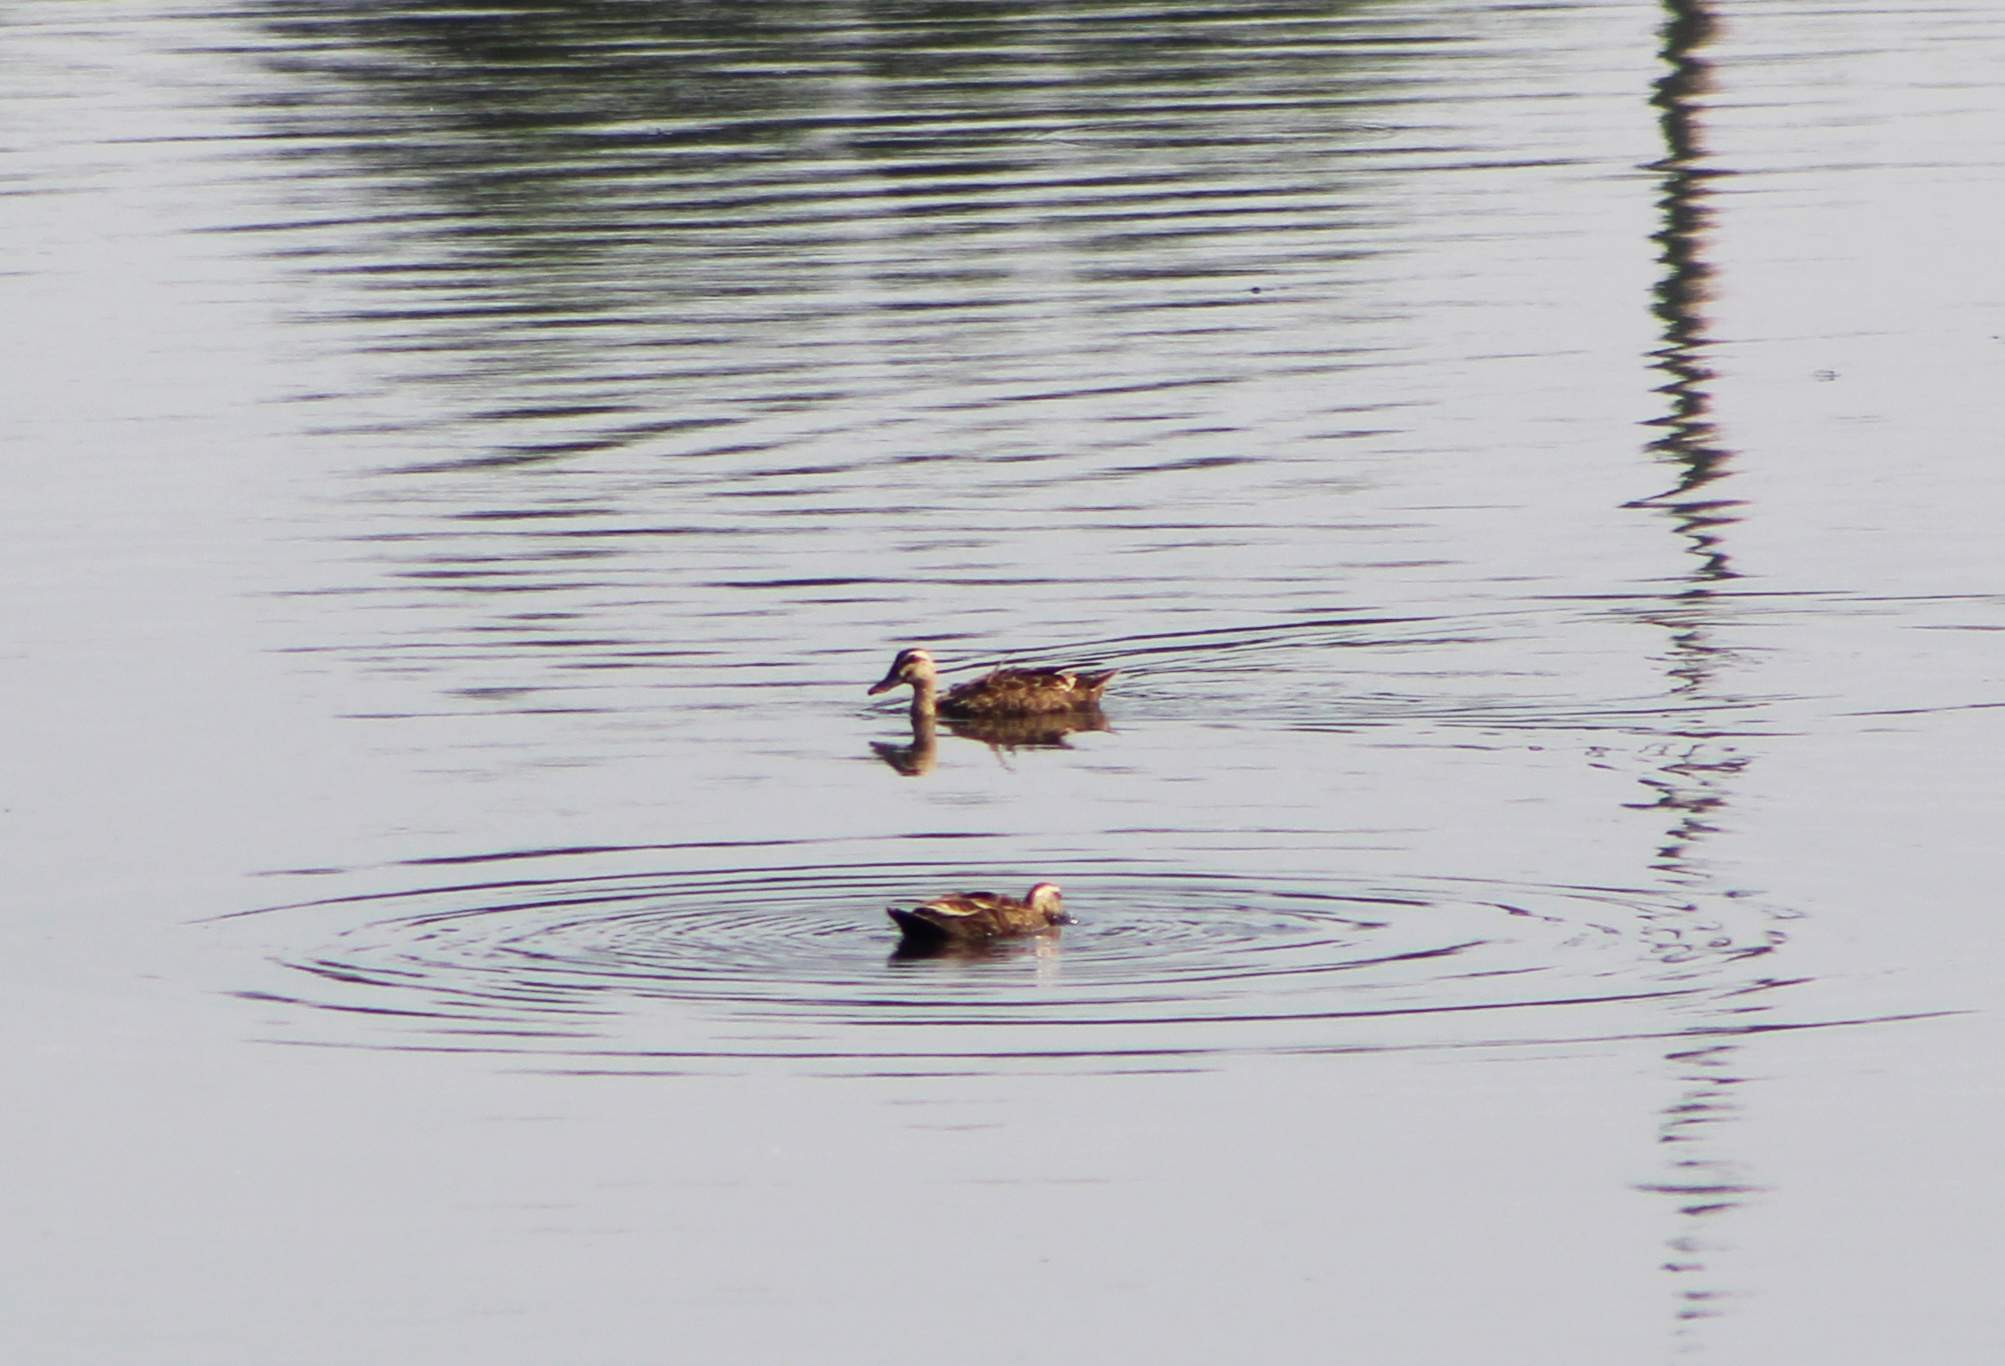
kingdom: Animalia
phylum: Chordata
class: Aves
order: Anseriformes
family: Anatidae
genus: Anas
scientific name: Anas zonorhyncha
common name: Eastern spot-billed duck
